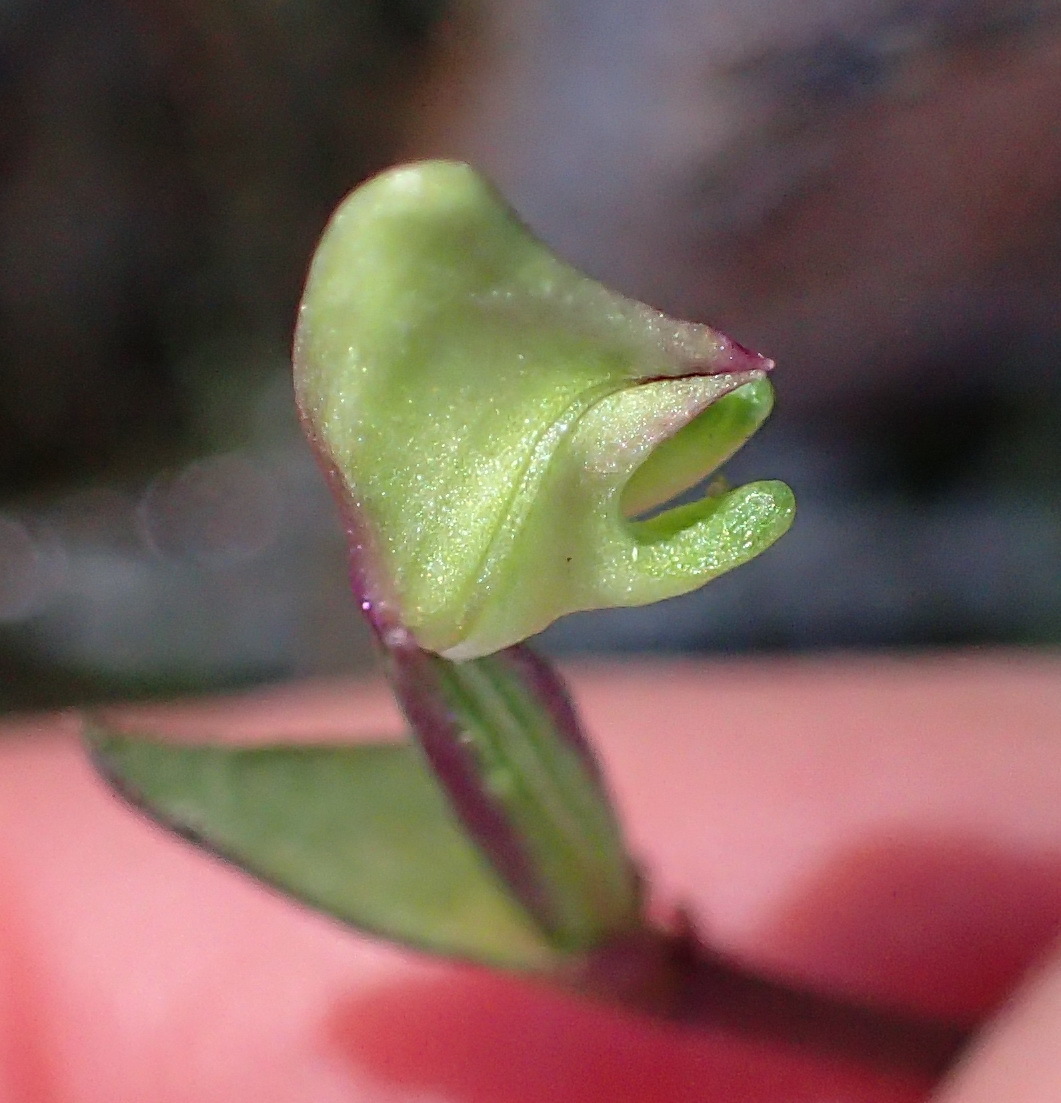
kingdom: Plantae
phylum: Tracheophyta
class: Liliopsida
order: Asparagales
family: Orchidaceae
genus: Disperis
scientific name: Disperis macowanii
